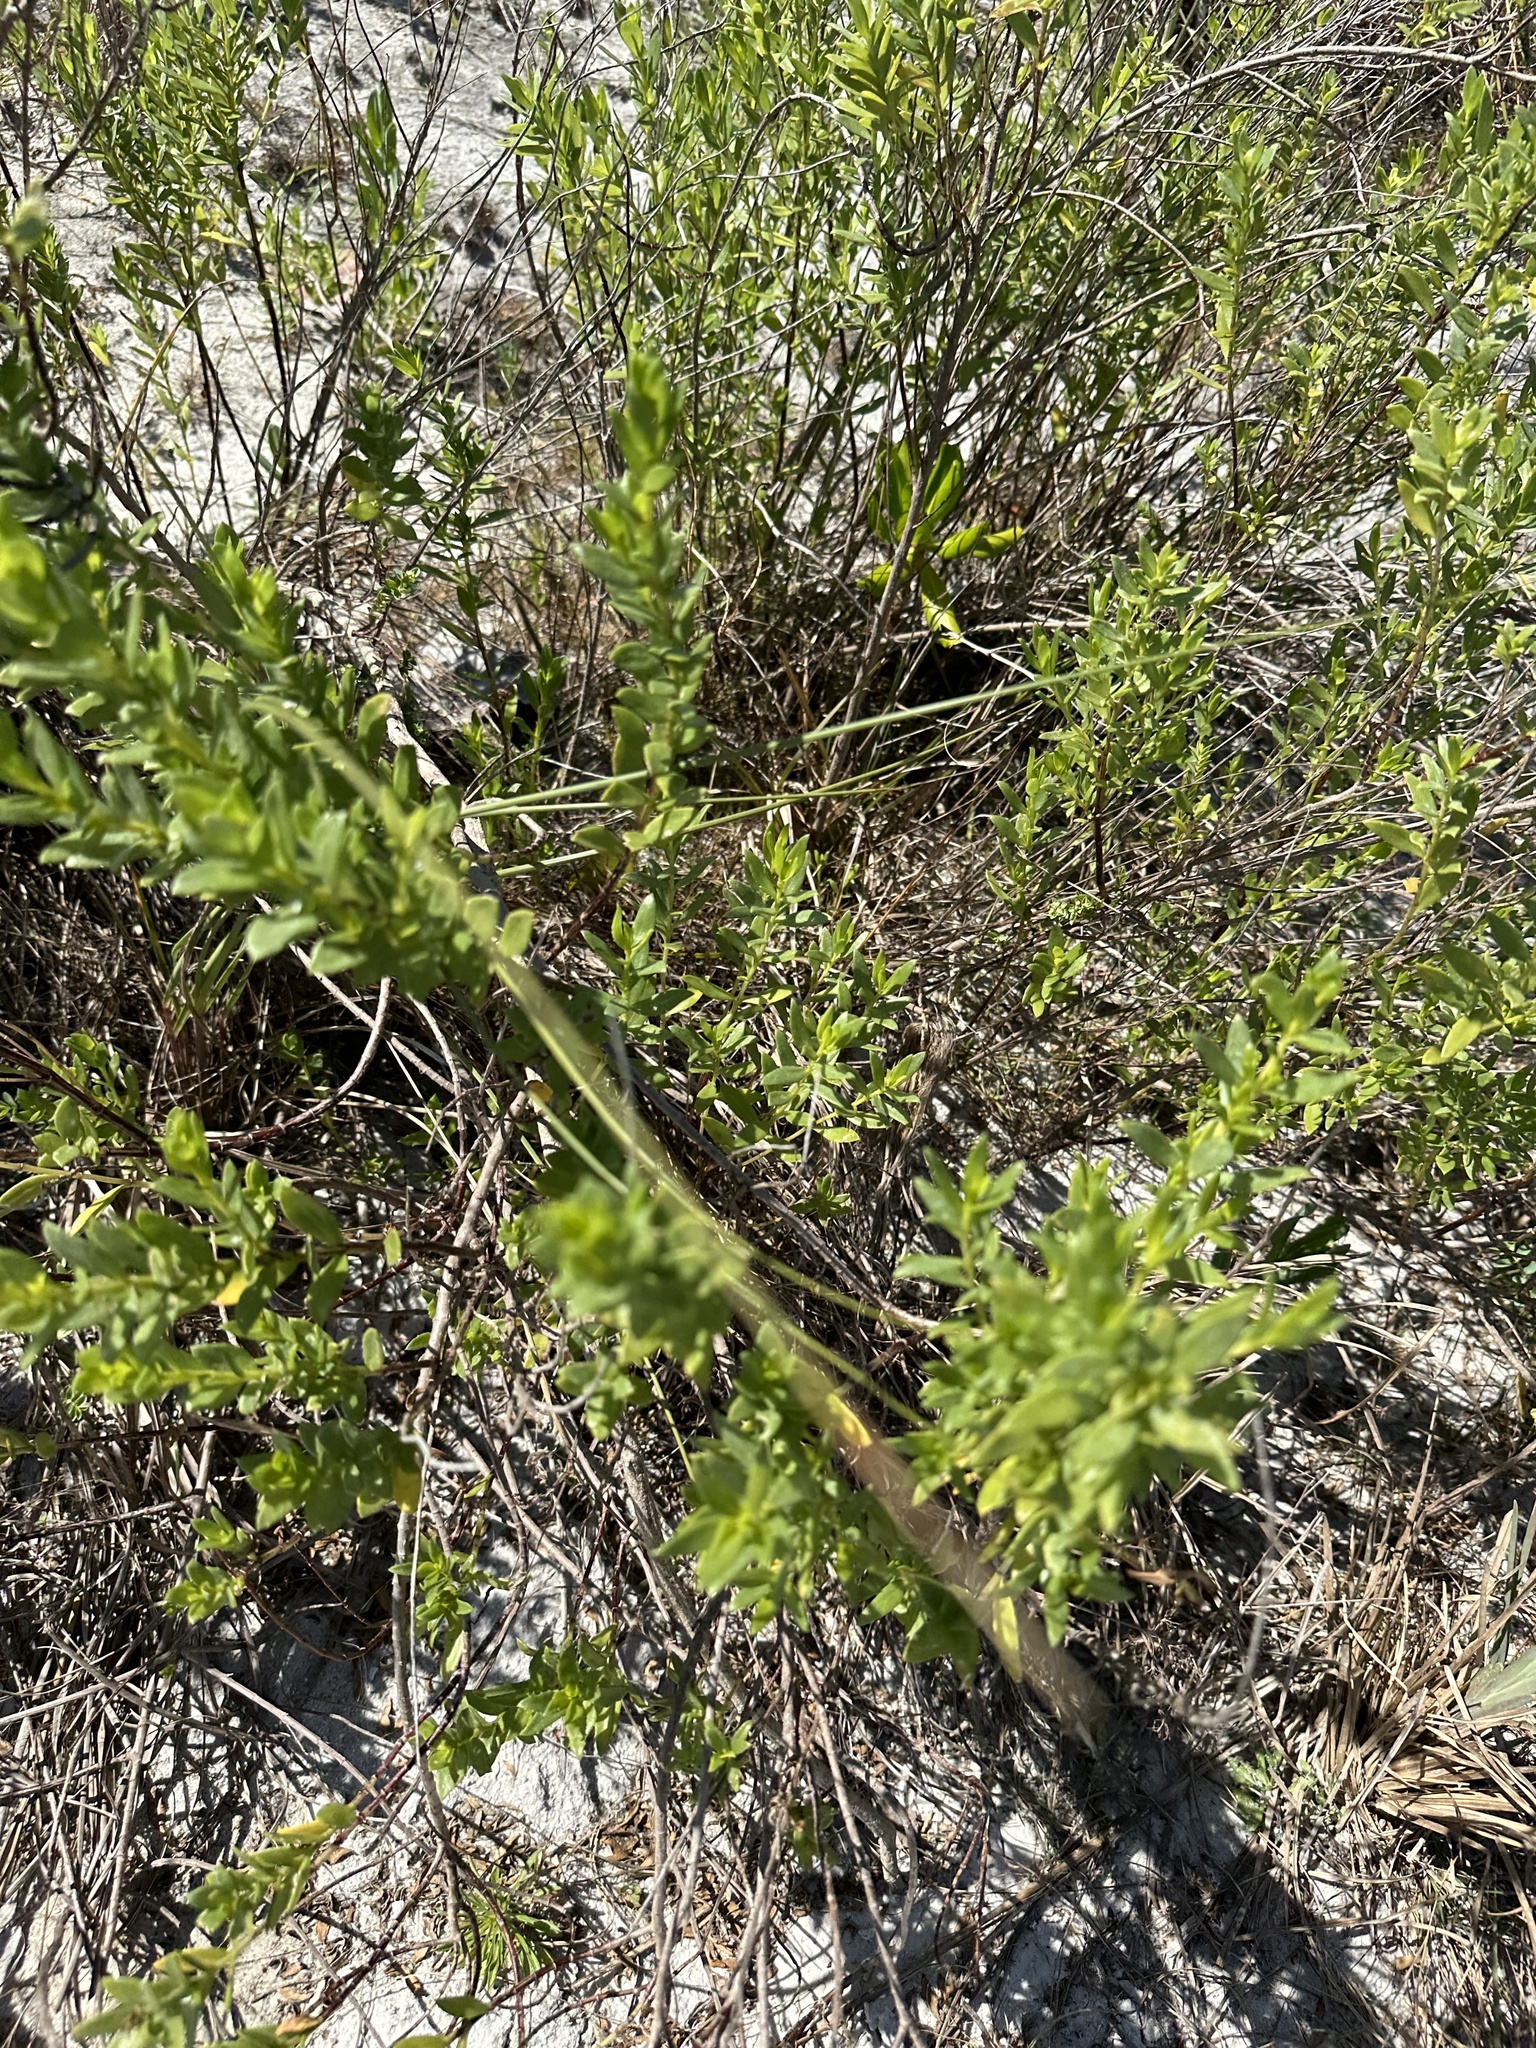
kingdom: Plantae
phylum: Tracheophyta
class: Magnoliopsida
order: Asterales
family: Asteraceae
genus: Iva
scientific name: Iva imbricata
